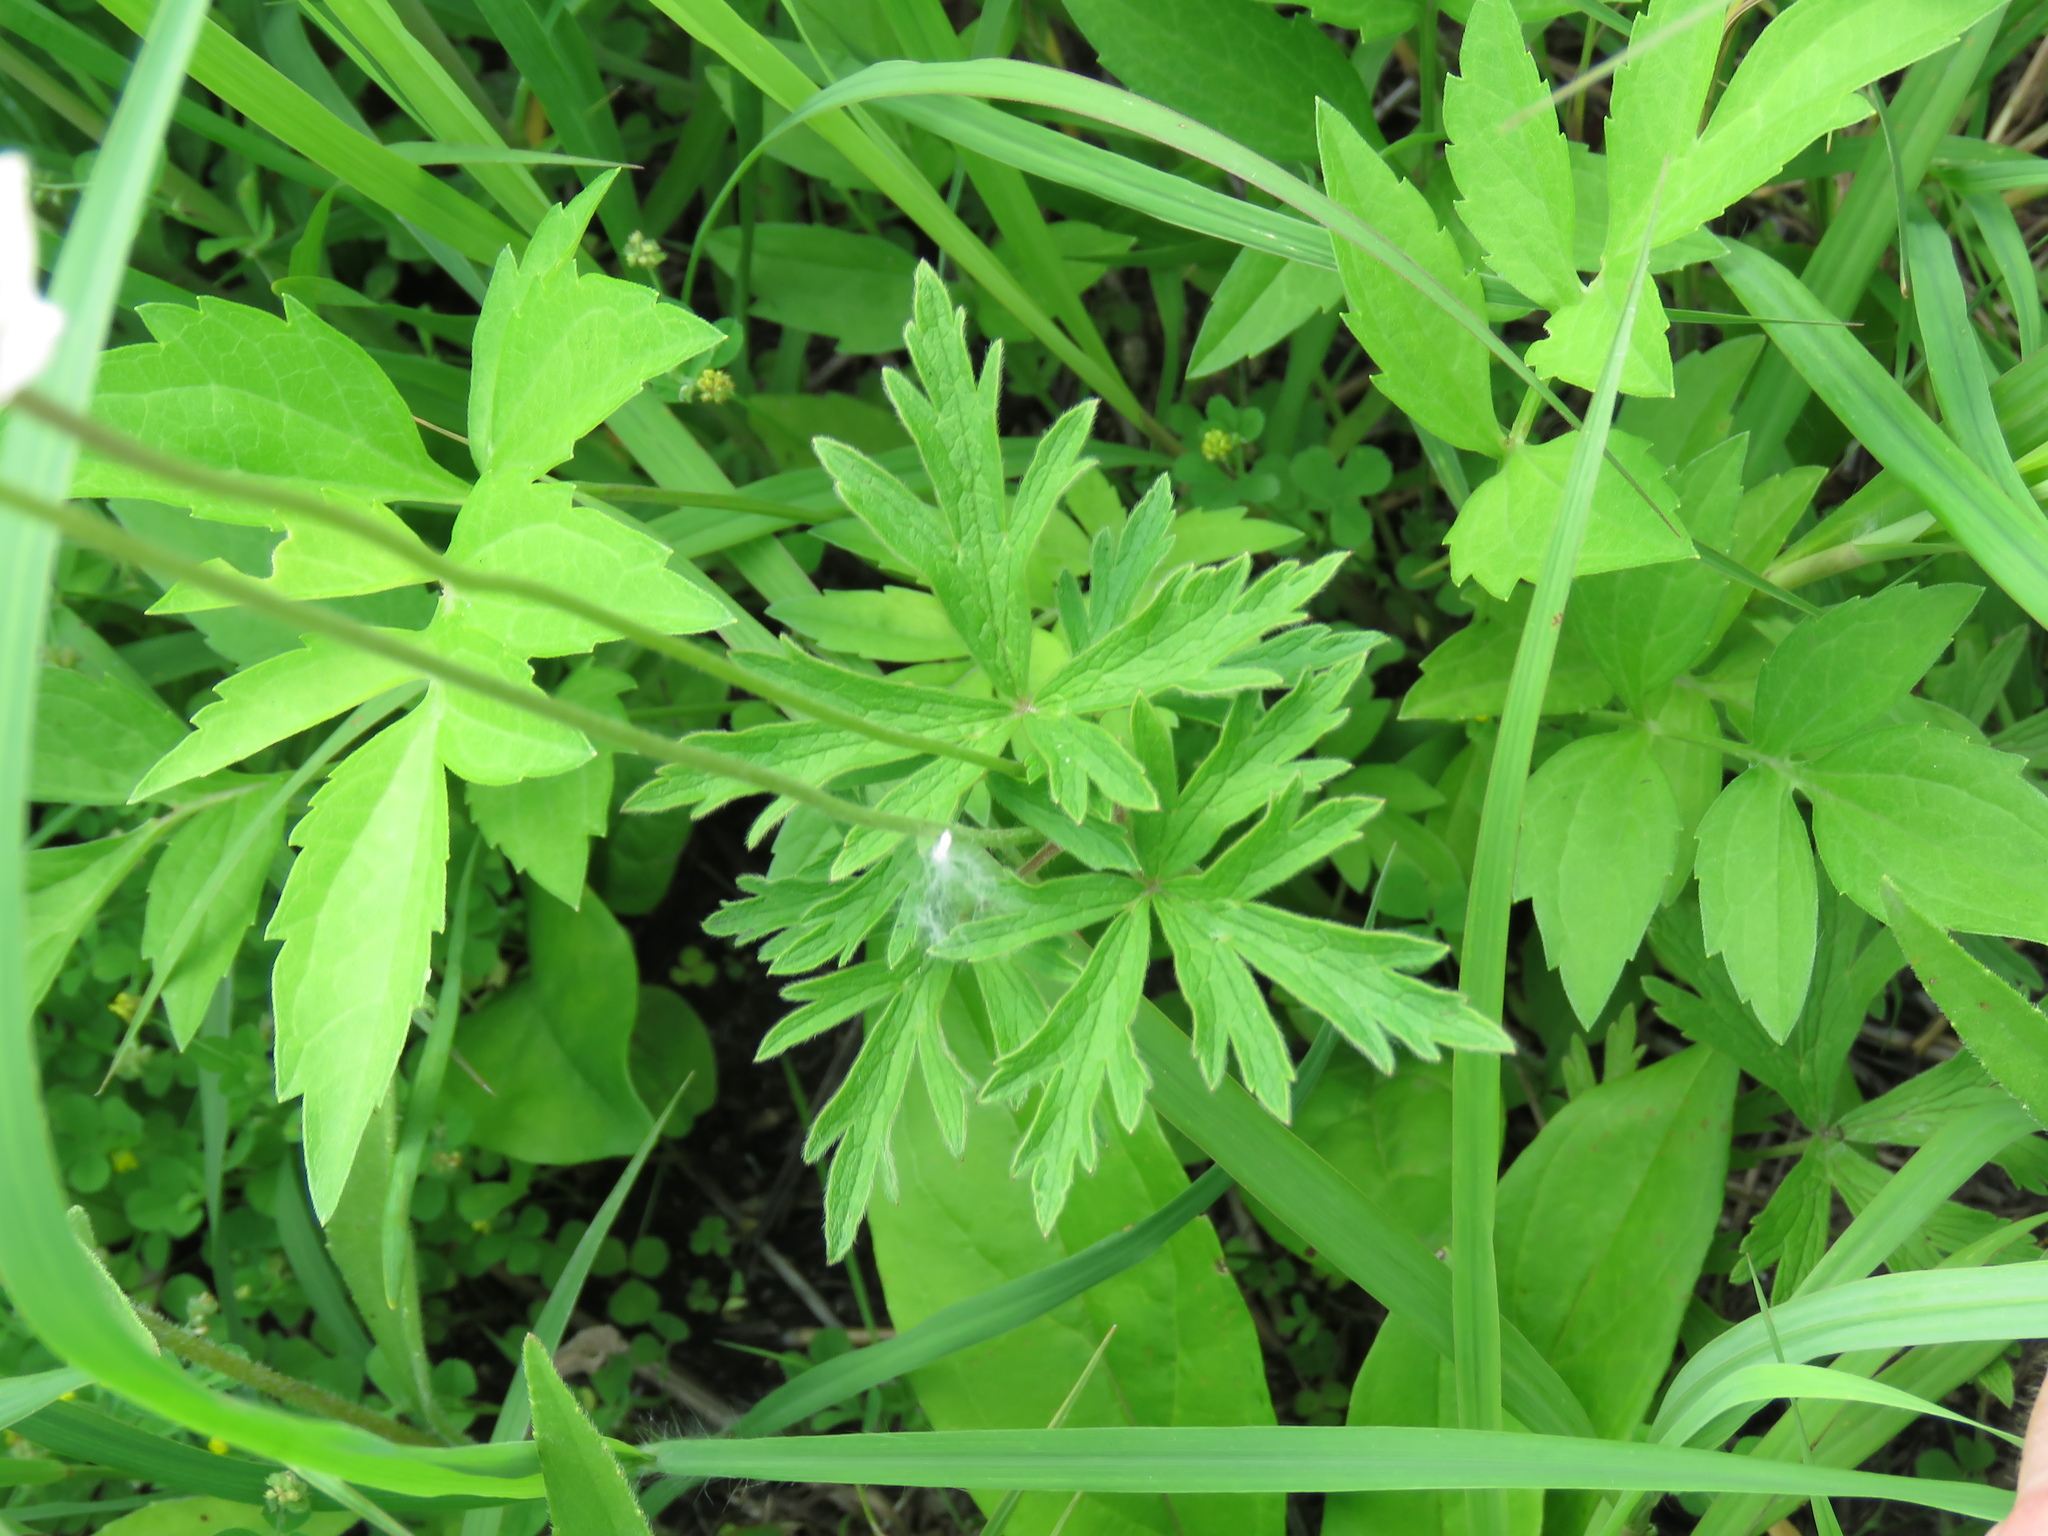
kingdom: Plantae
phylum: Tracheophyta
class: Magnoliopsida
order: Ranunculales
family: Ranunculaceae
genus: Anemone
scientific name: Anemone cylindrica
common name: Candle anemone
